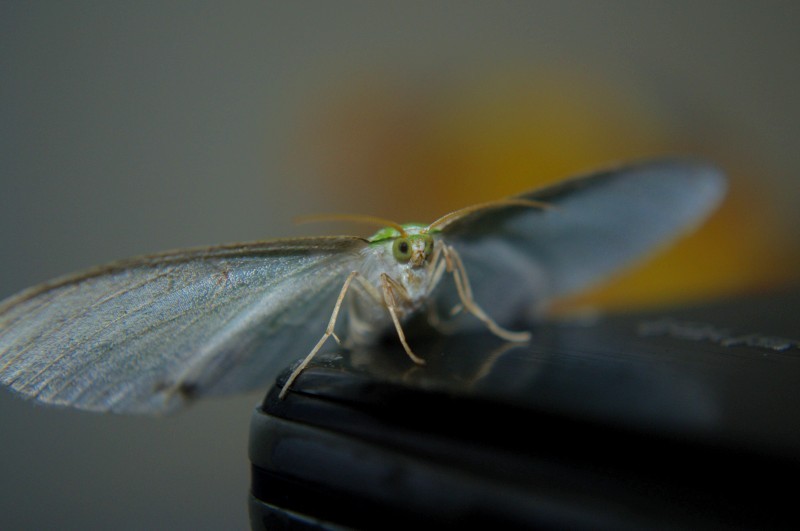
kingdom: Animalia
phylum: Arthropoda
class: Insecta
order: Lepidoptera
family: Geometridae
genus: Eucyclodes
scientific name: Eucyclodes sanguilineata
